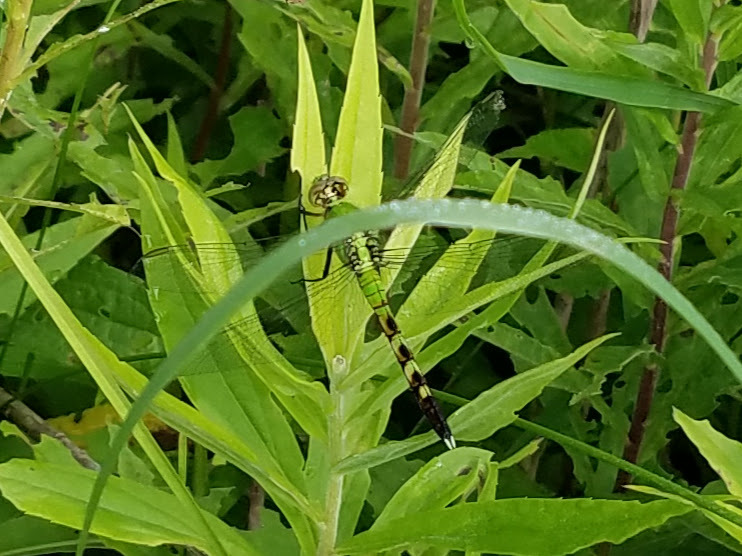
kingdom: Animalia
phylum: Arthropoda
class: Insecta
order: Odonata
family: Libellulidae
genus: Erythemis
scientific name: Erythemis simplicicollis
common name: Eastern pondhawk
